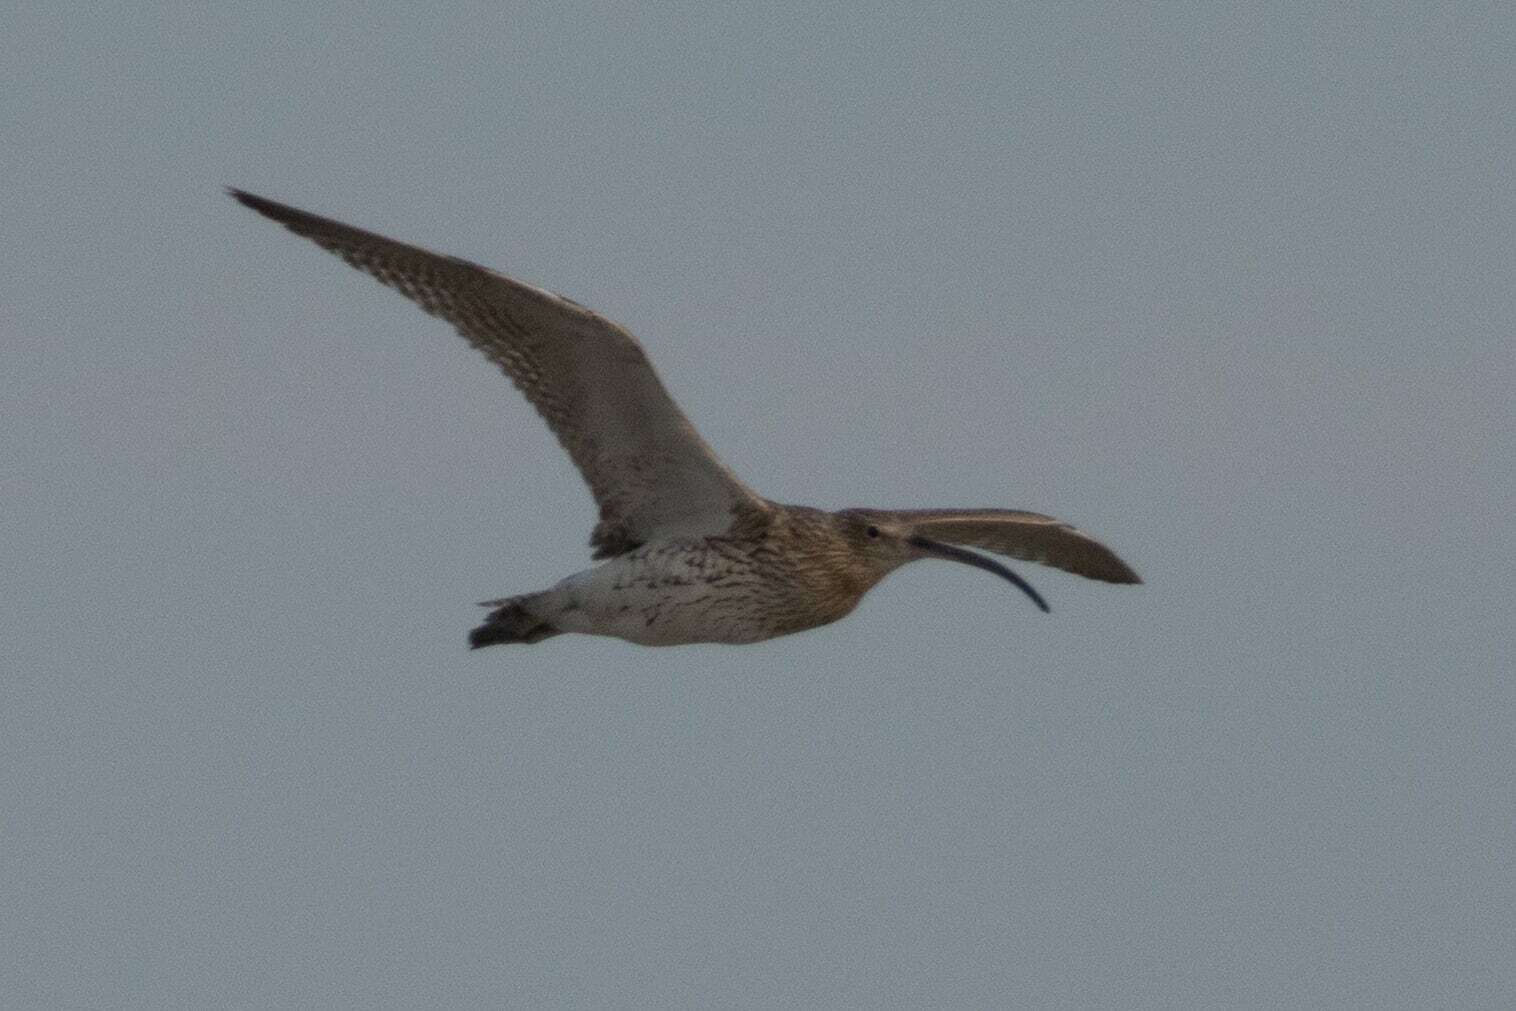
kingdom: Animalia
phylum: Chordata
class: Aves
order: Charadriiformes
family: Scolopacidae
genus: Numenius
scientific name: Numenius phaeopus
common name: Whimbrel
